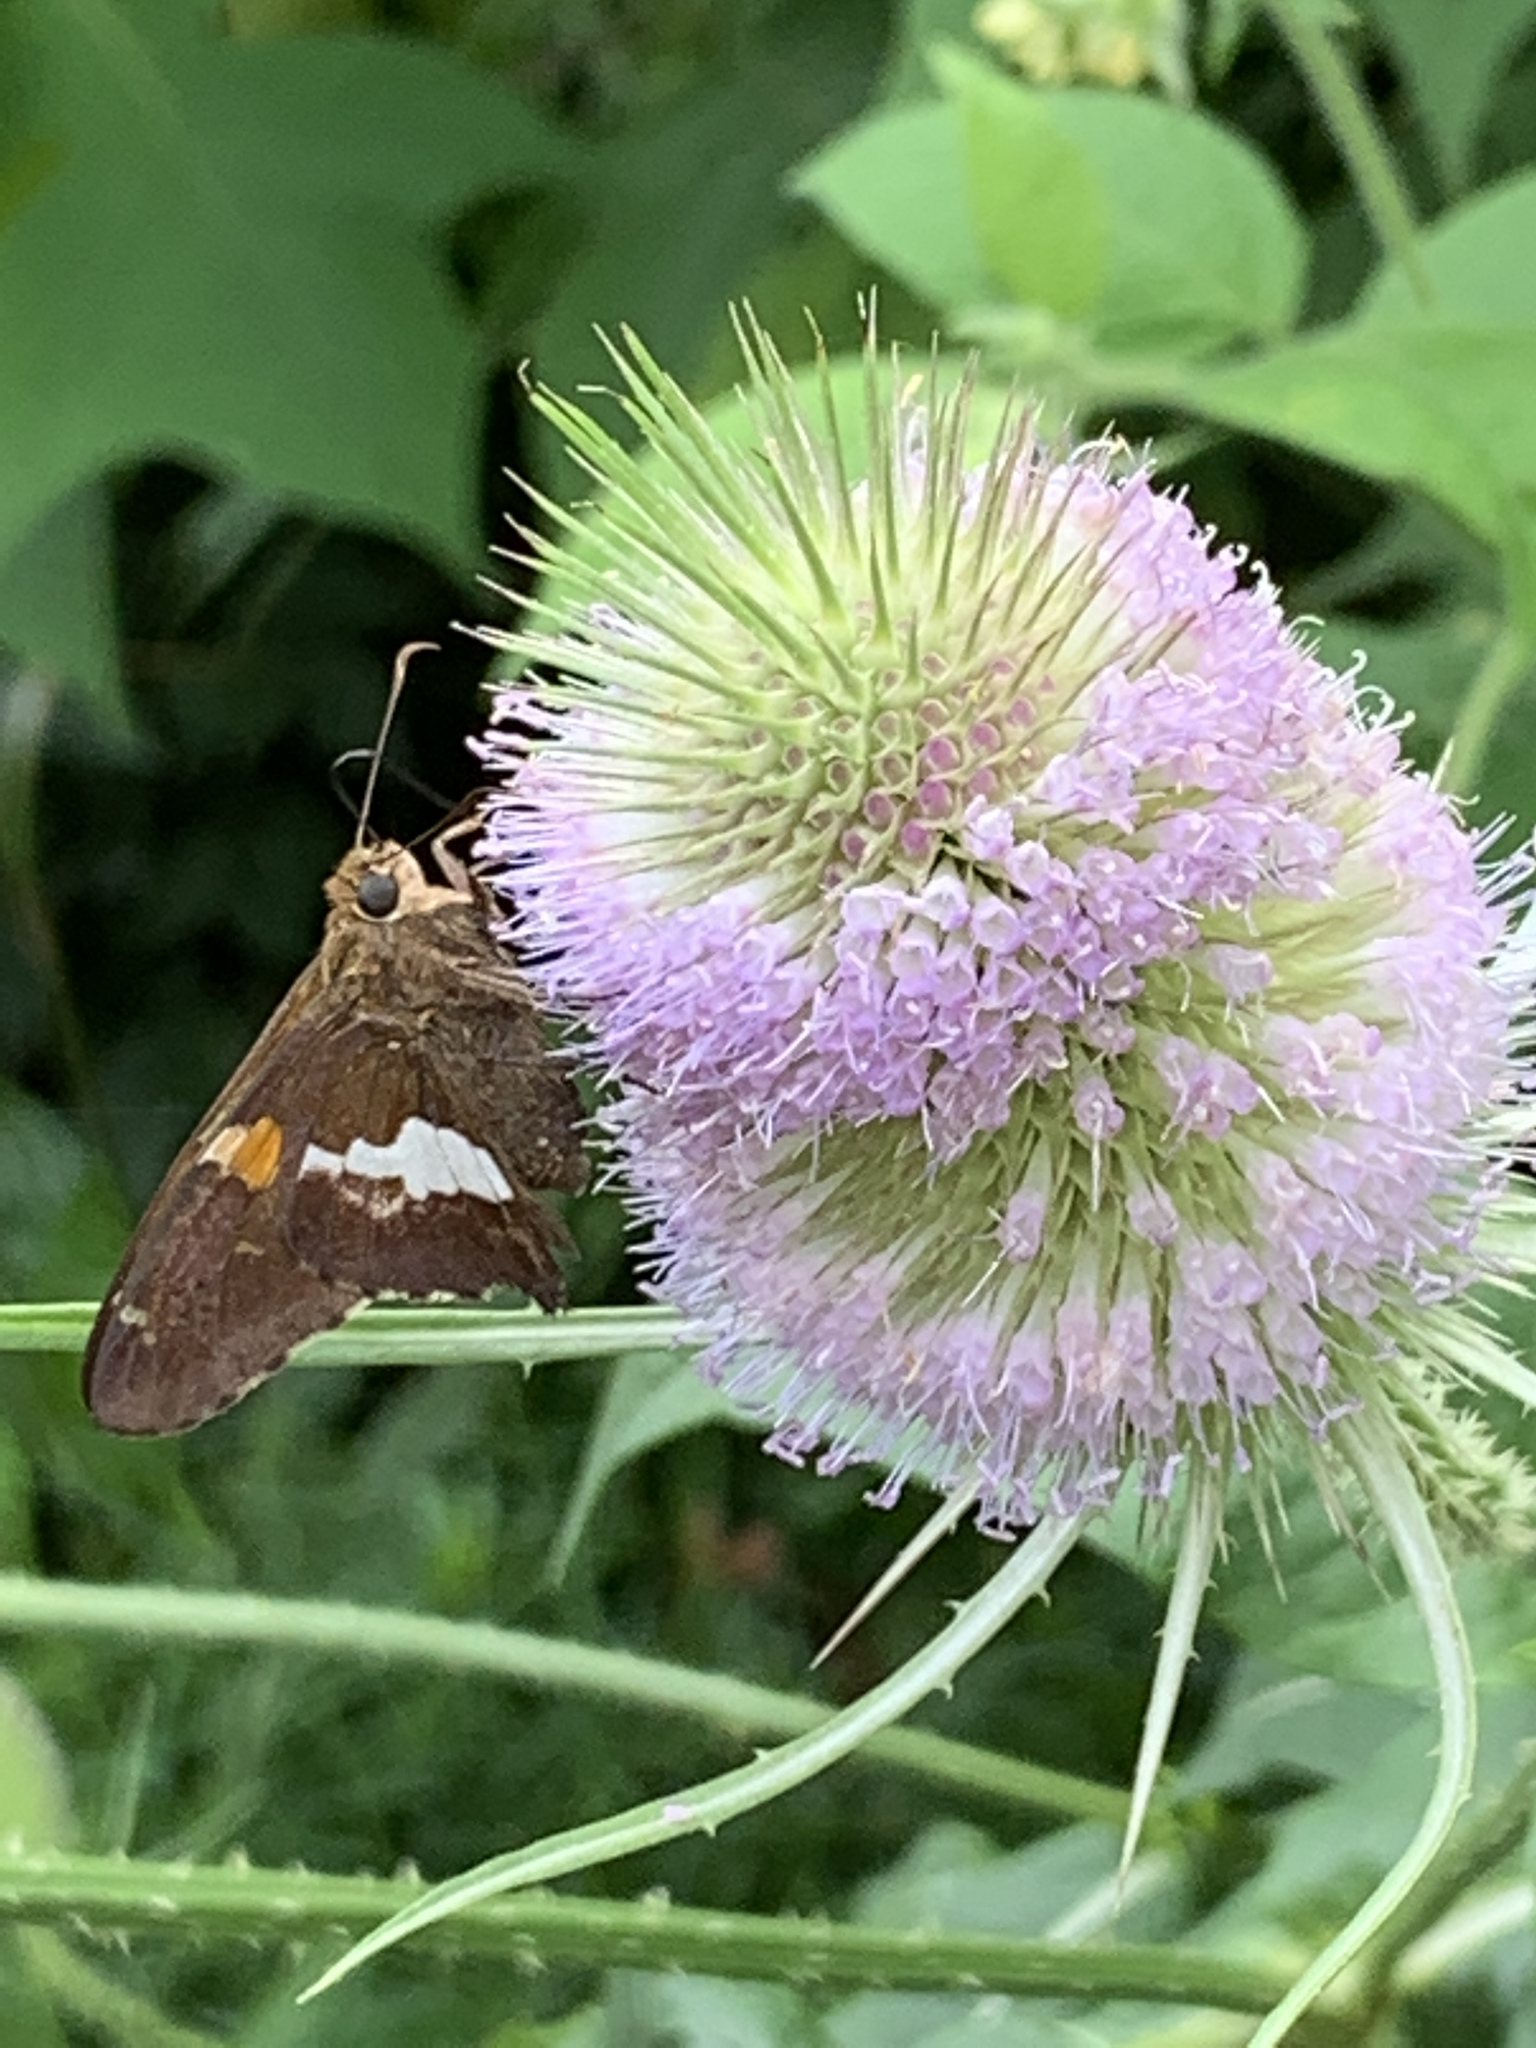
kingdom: Animalia
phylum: Arthropoda
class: Insecta
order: Lepidoptera
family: Hesperiidae
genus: Epargyreus
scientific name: Epargyreus clarus
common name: Silver-spotted skipper
